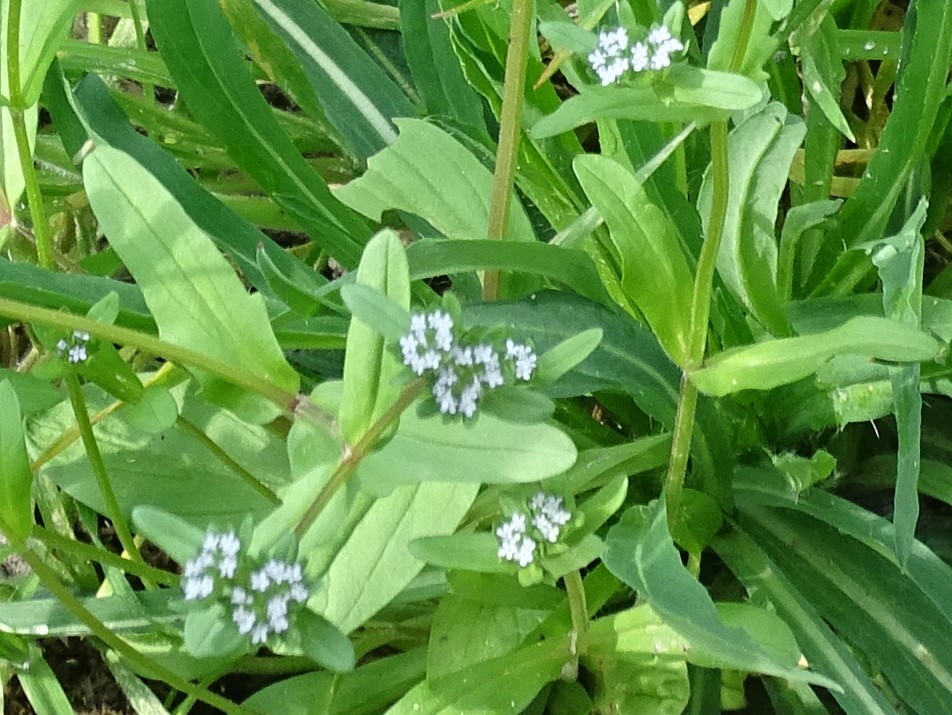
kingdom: Plantae
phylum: Tracheophyta
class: Magnoliopsida
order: Dipsacales
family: Caprifoliaceae
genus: Valerianella
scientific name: Valerianella locusta
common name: Common cornsalad
